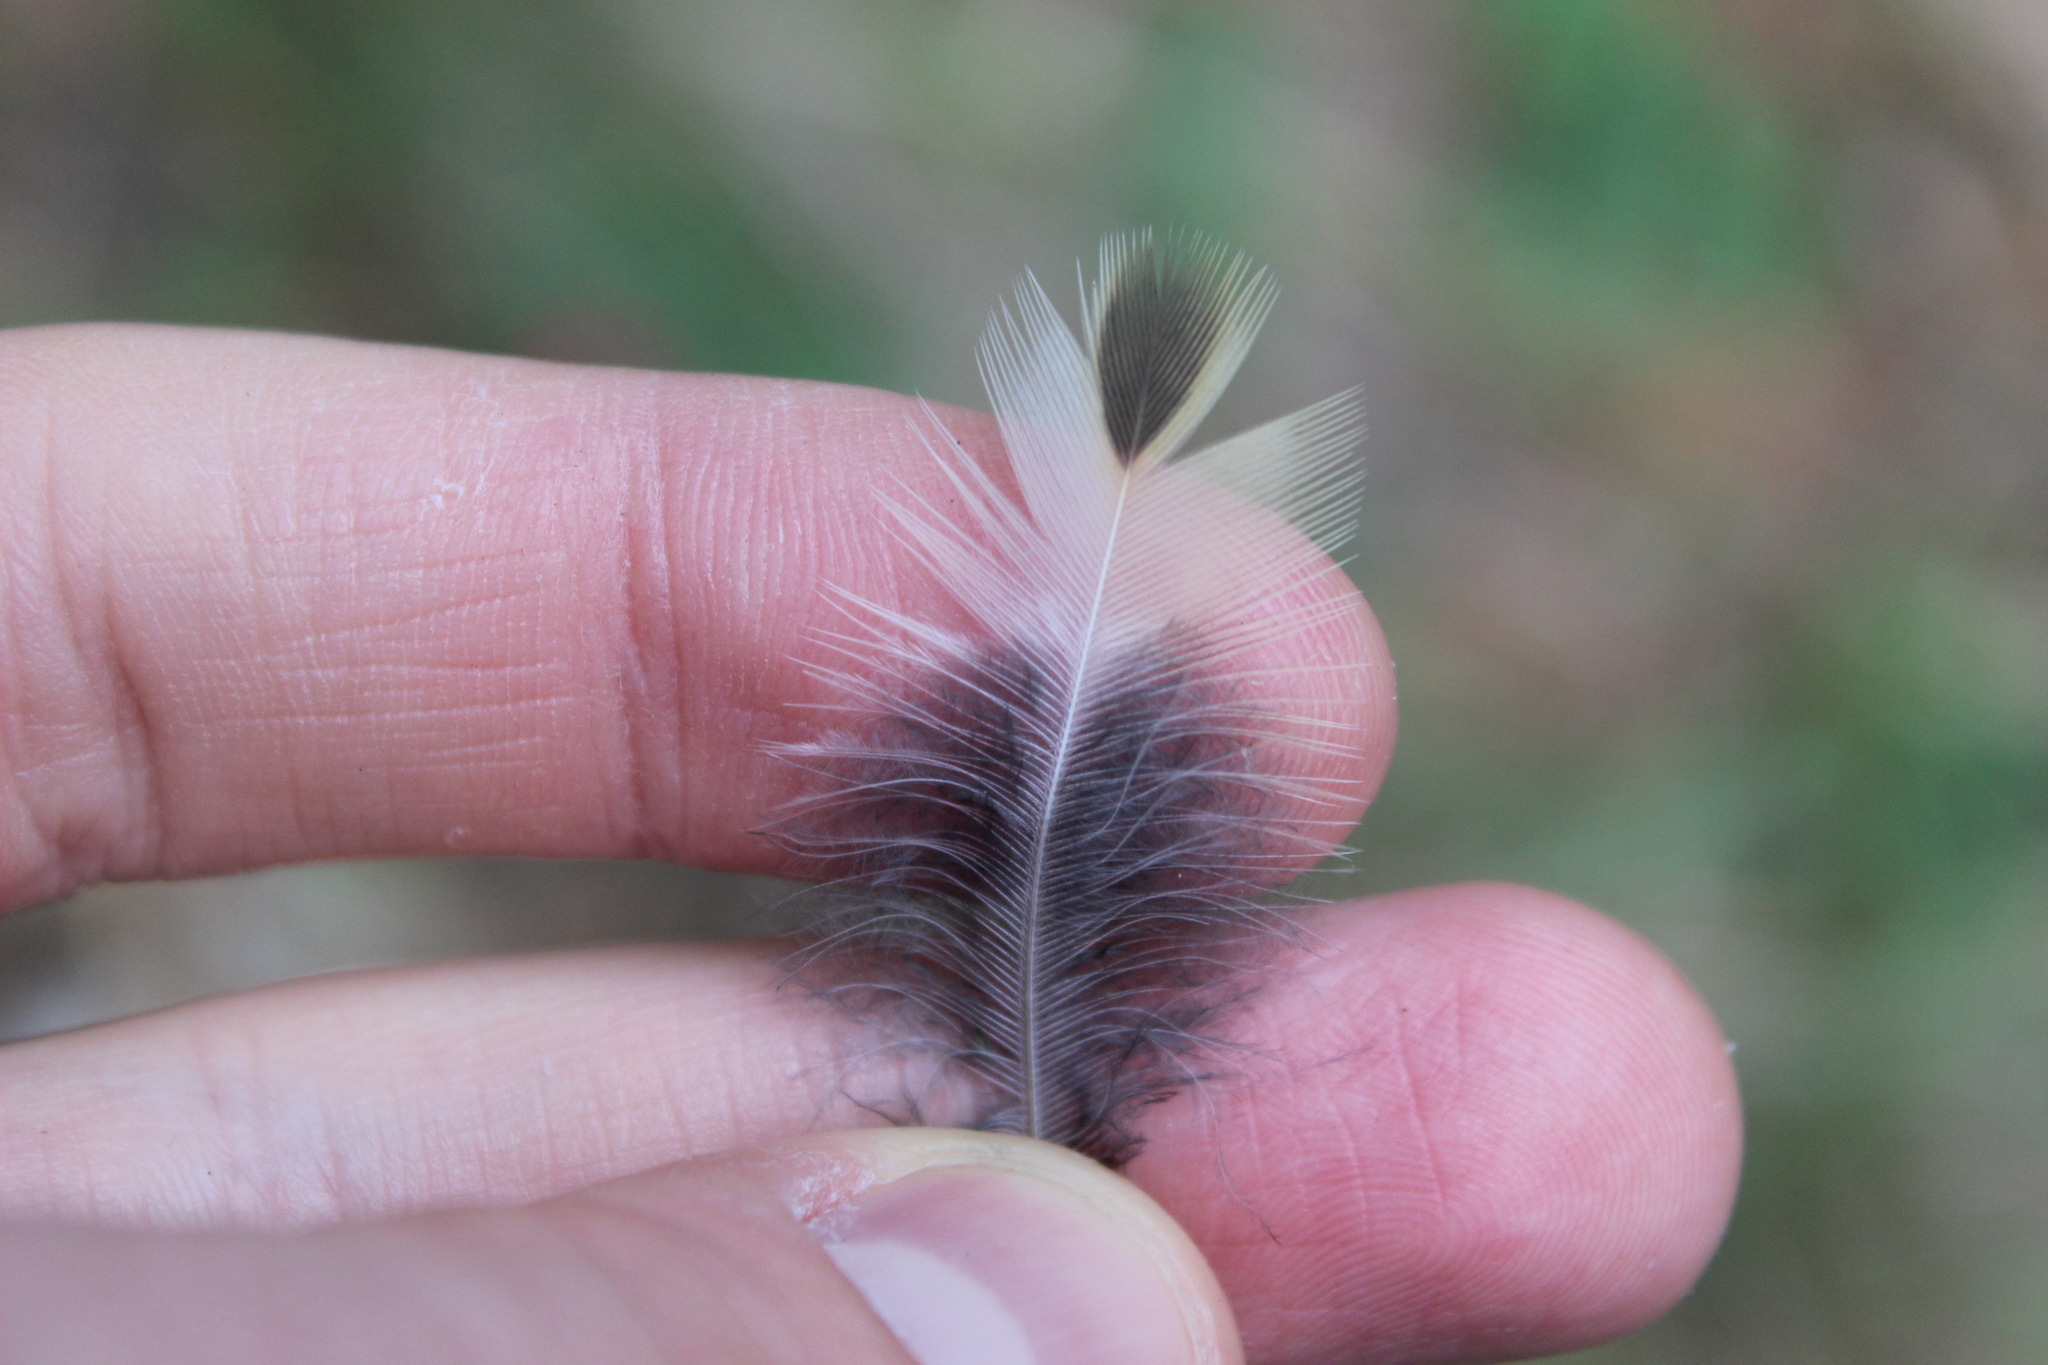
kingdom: Animalia
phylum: Chordata
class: Aves
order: Galliformes
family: Odontophoridae
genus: Callipepla
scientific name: Callipepla californica
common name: California quail
